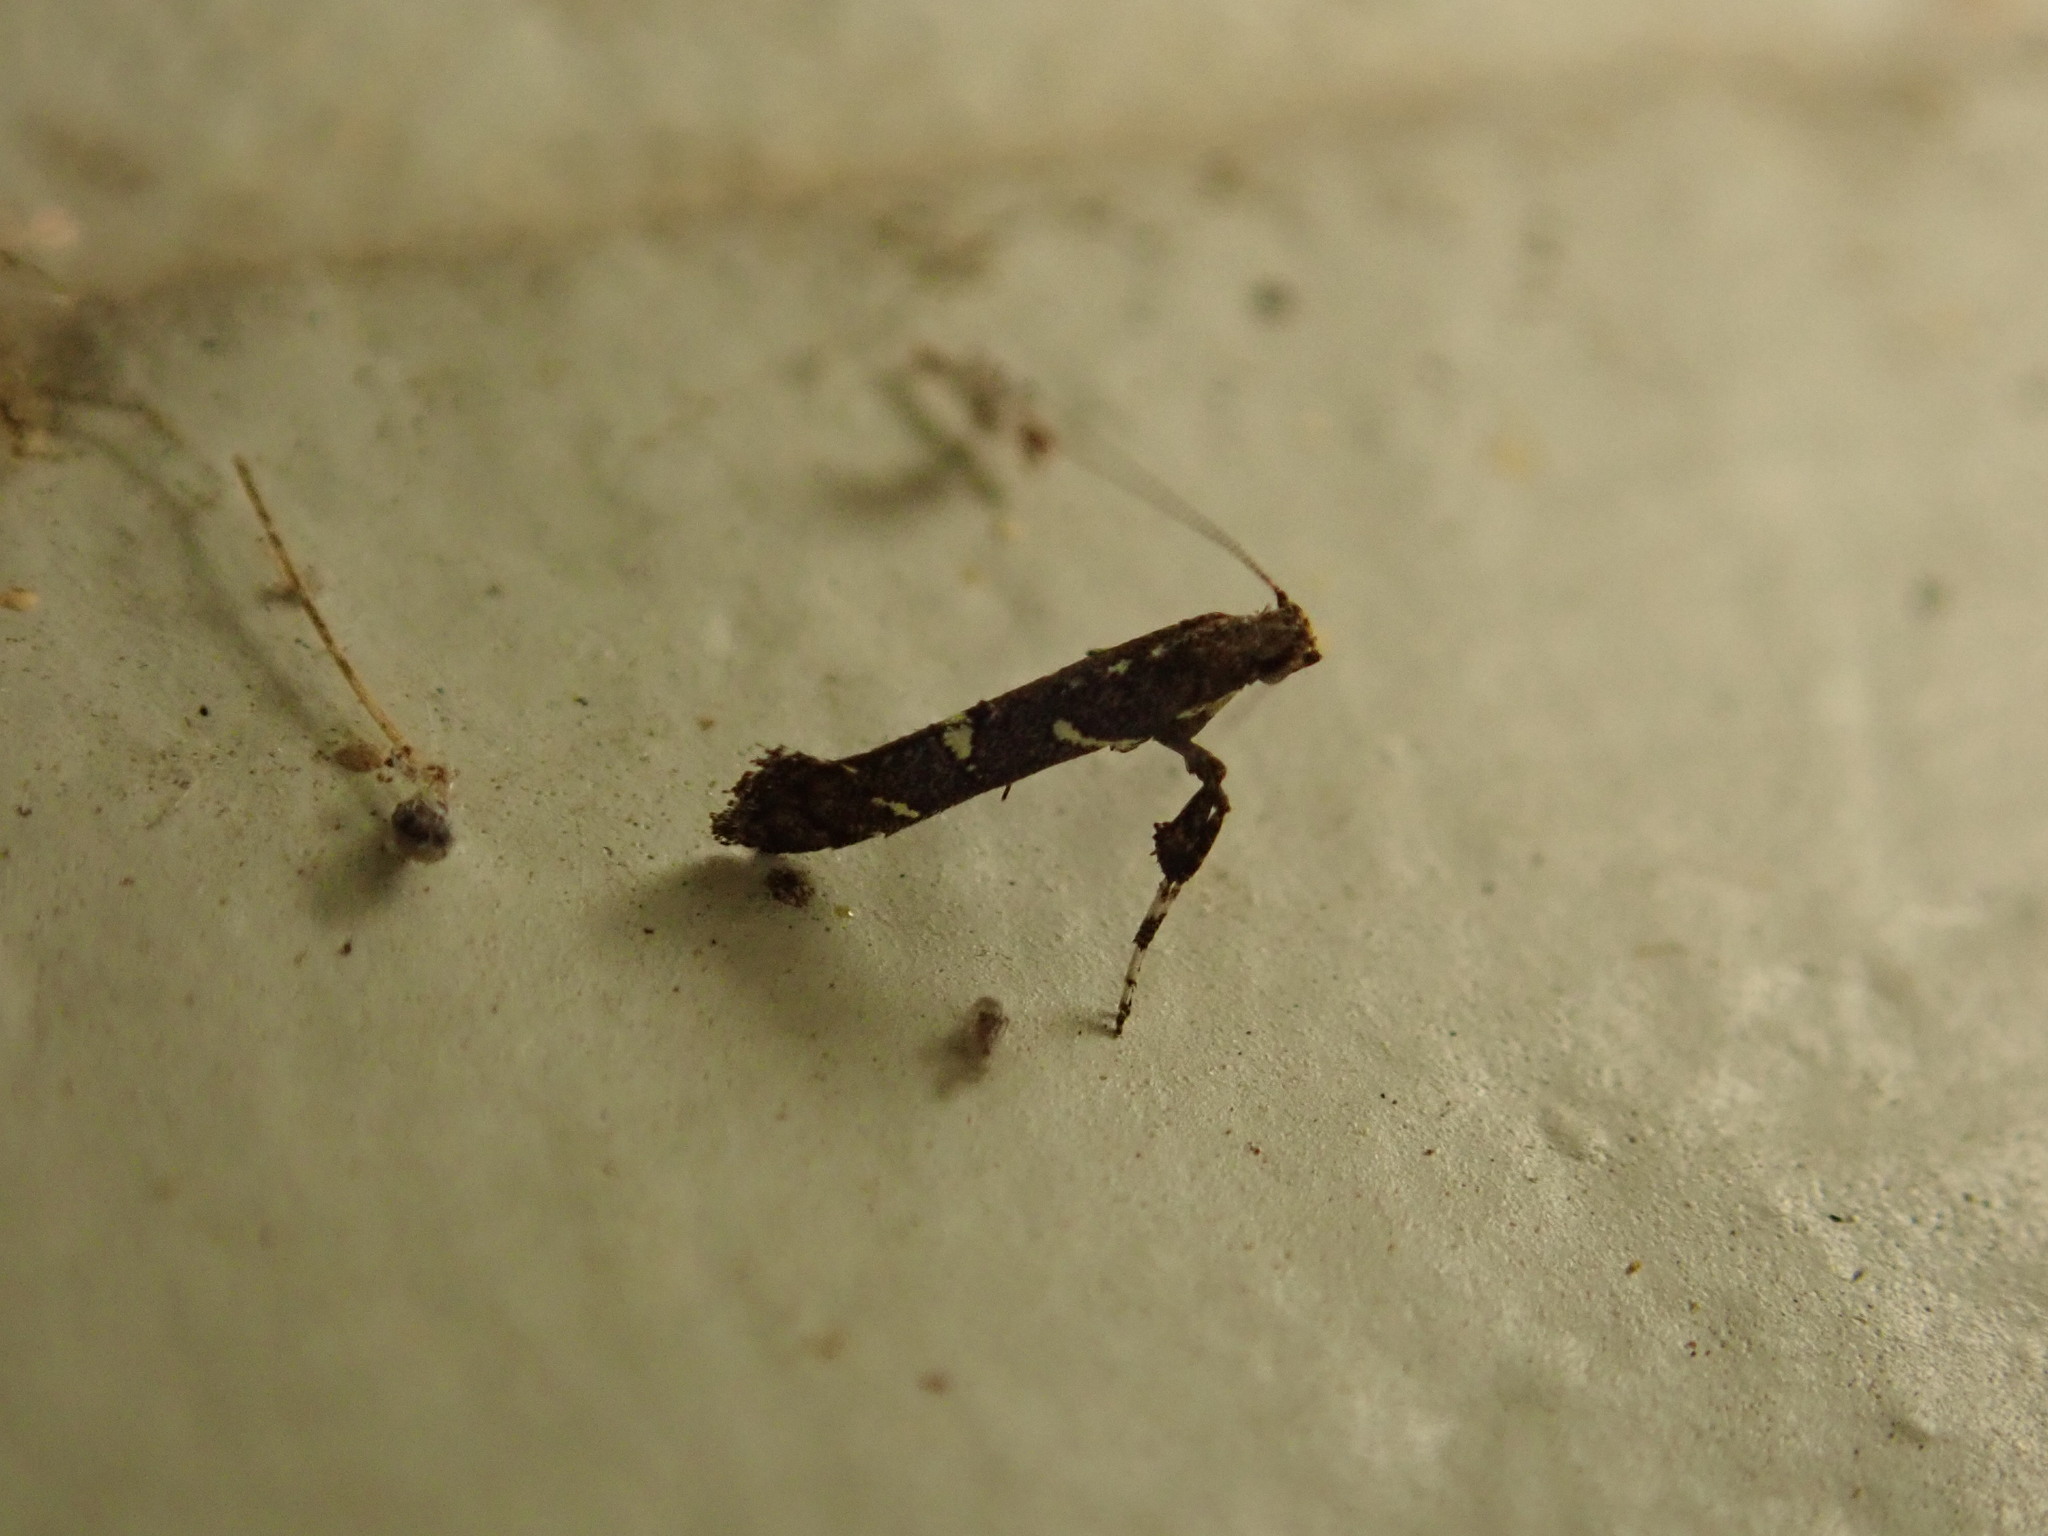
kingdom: Animalia
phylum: Arthropoda
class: Insecta
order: Lepidoptera
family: Gracillariidae
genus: Caloptilia
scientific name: Caloptilia triadicae
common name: Tallow leaf roller
